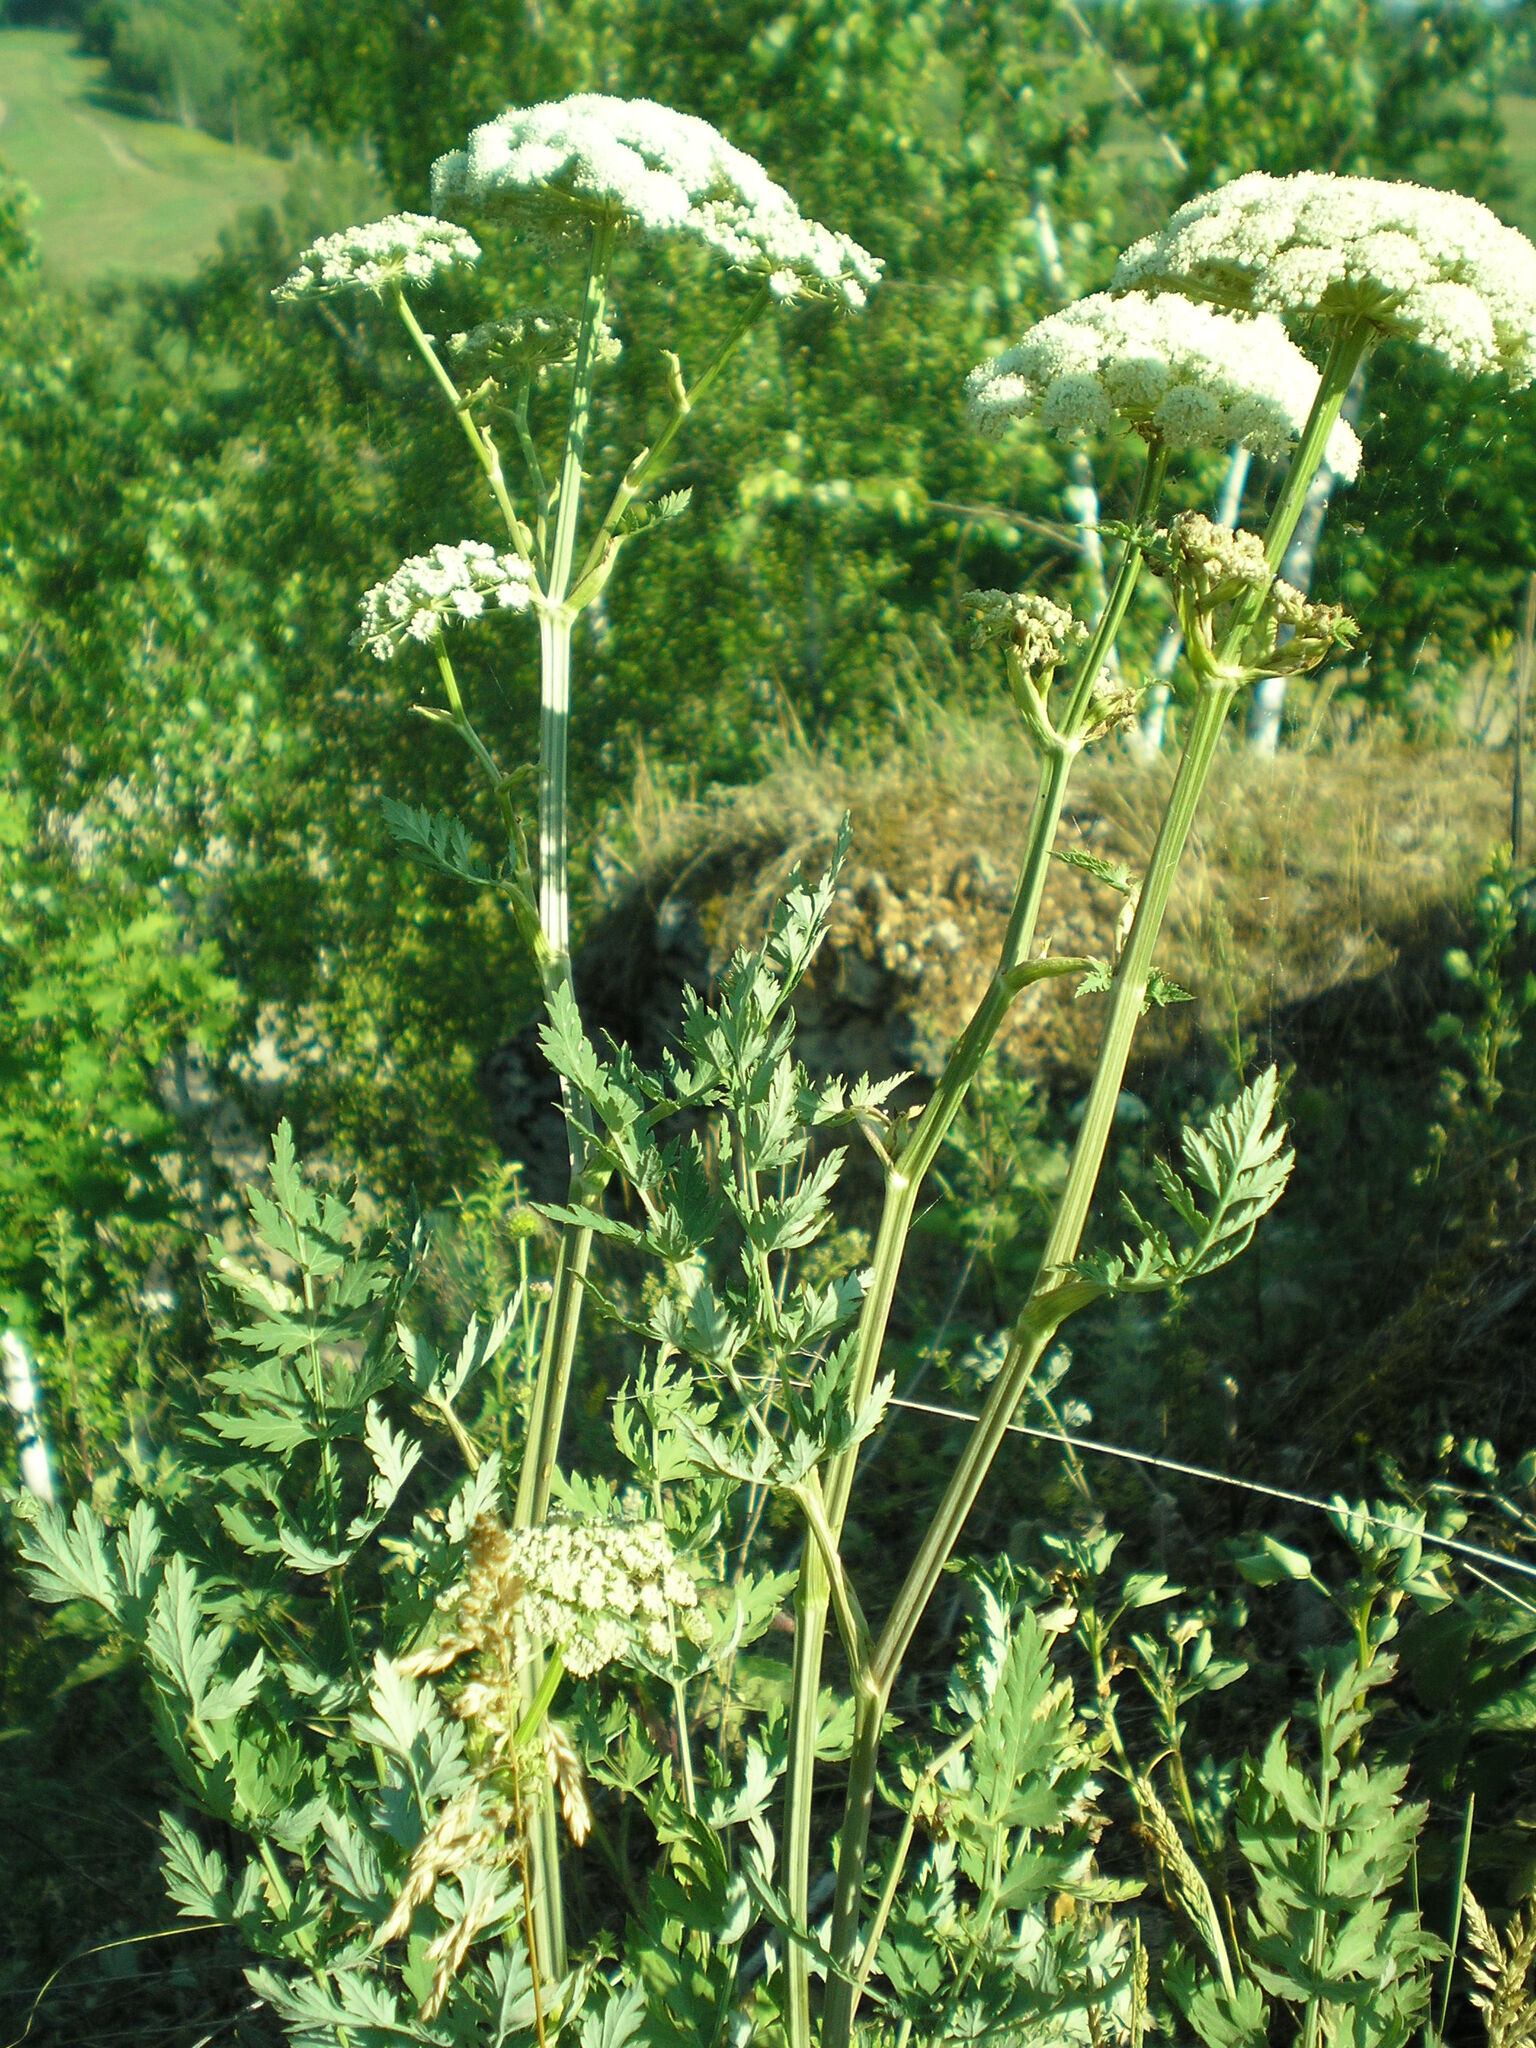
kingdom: Plantae
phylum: Tracheophyta
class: Magnoliopsida
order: Apiales
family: Apiaceae
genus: Seseli
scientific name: Seseli libanotis
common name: Mooncarrot
